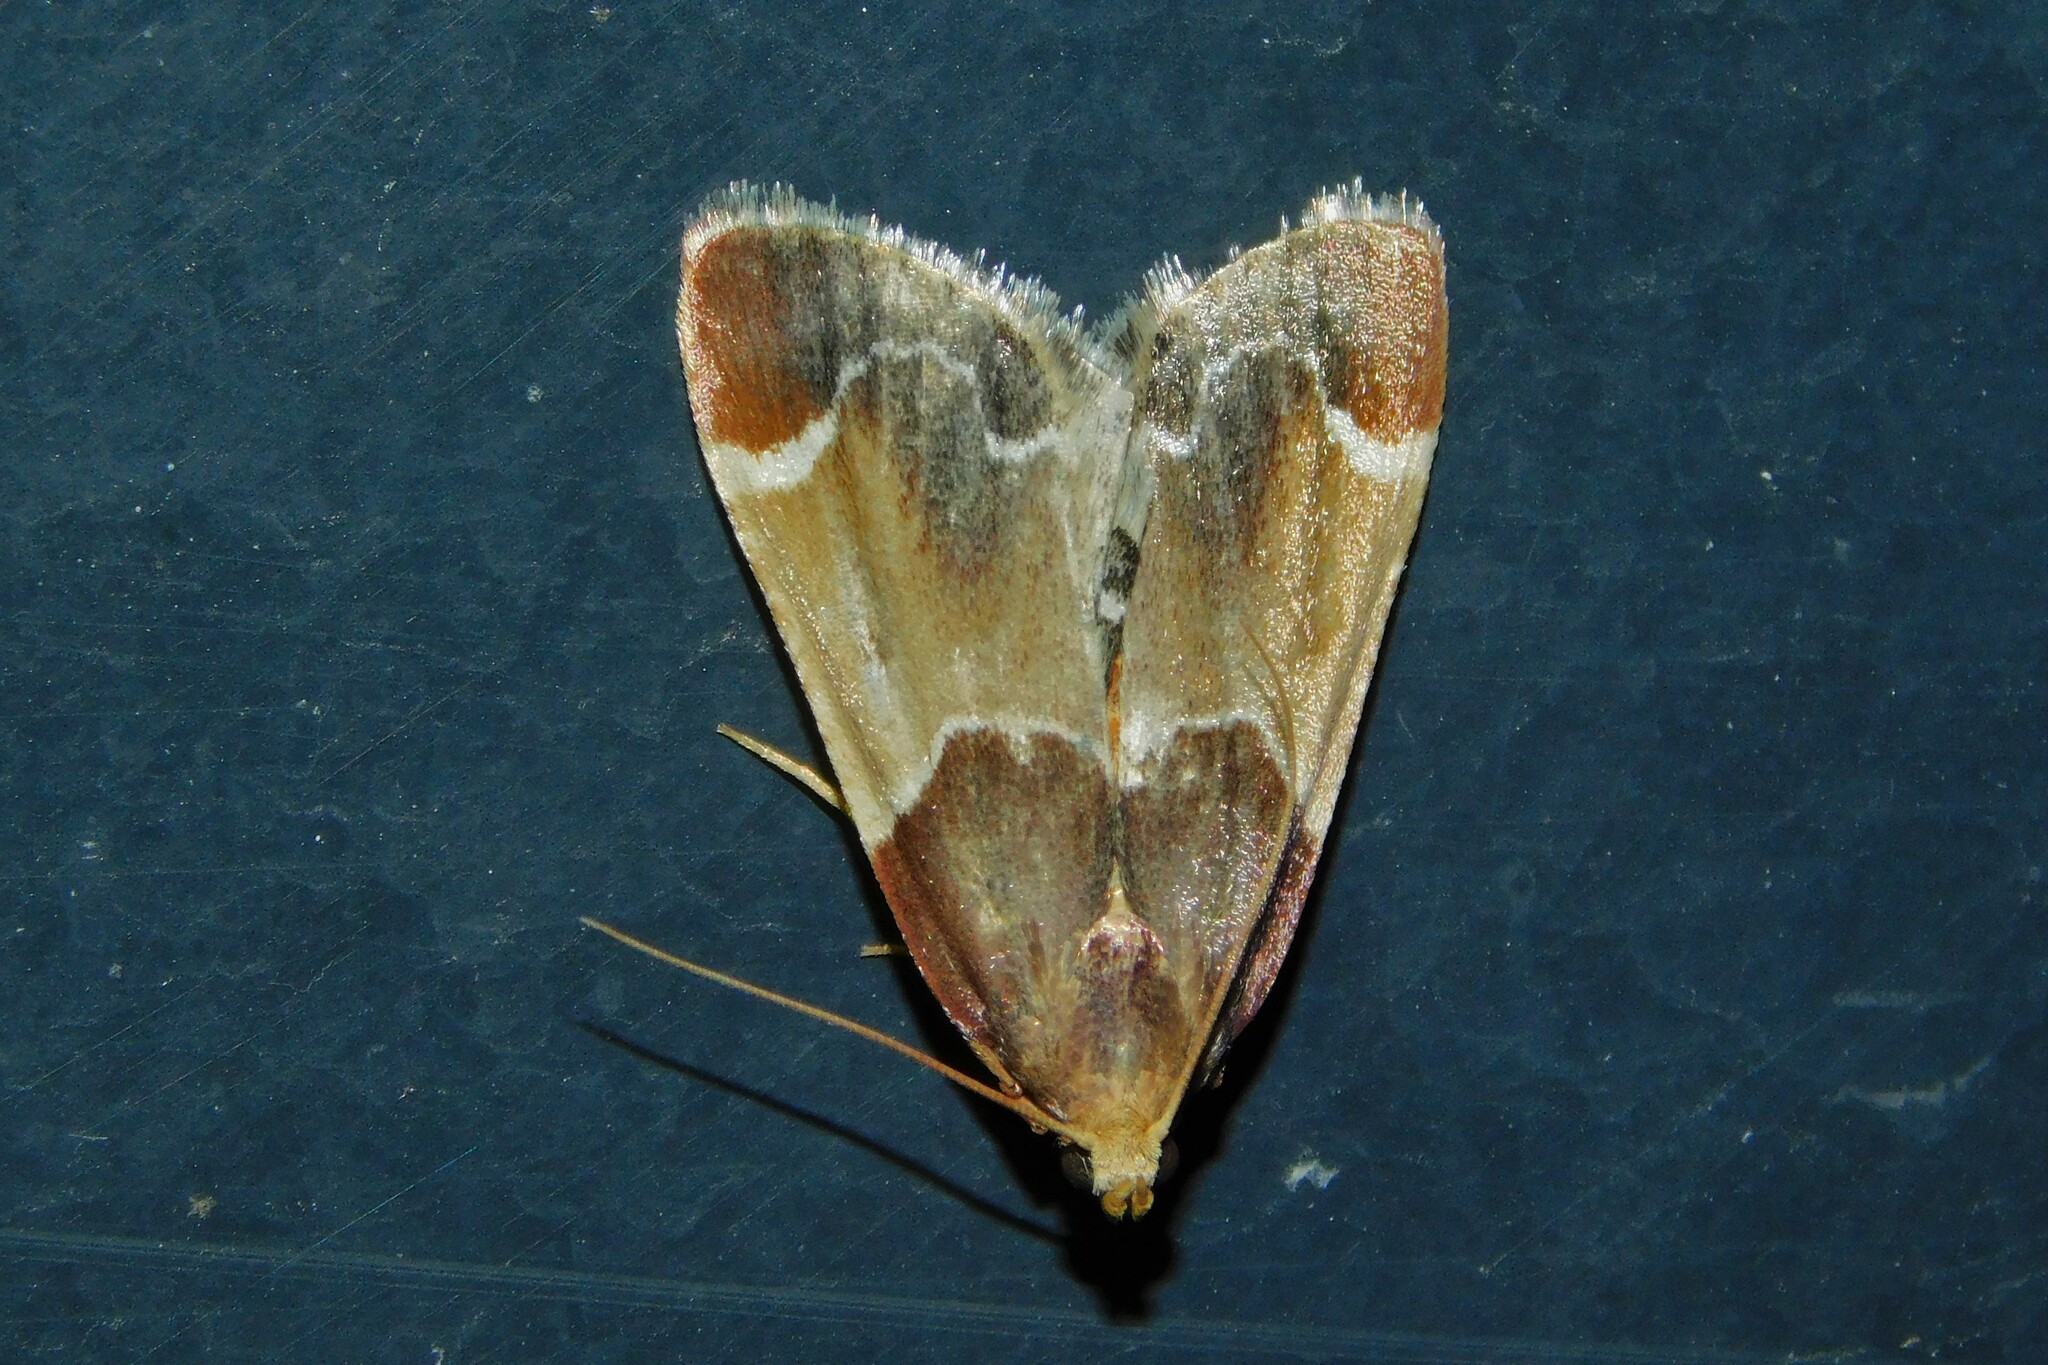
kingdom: Animalia
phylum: Arthropoda
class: Insecta
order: Lepidoptera
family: Pyralidae
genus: Pyralis
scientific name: Pyralis farinalis
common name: Meal moth
